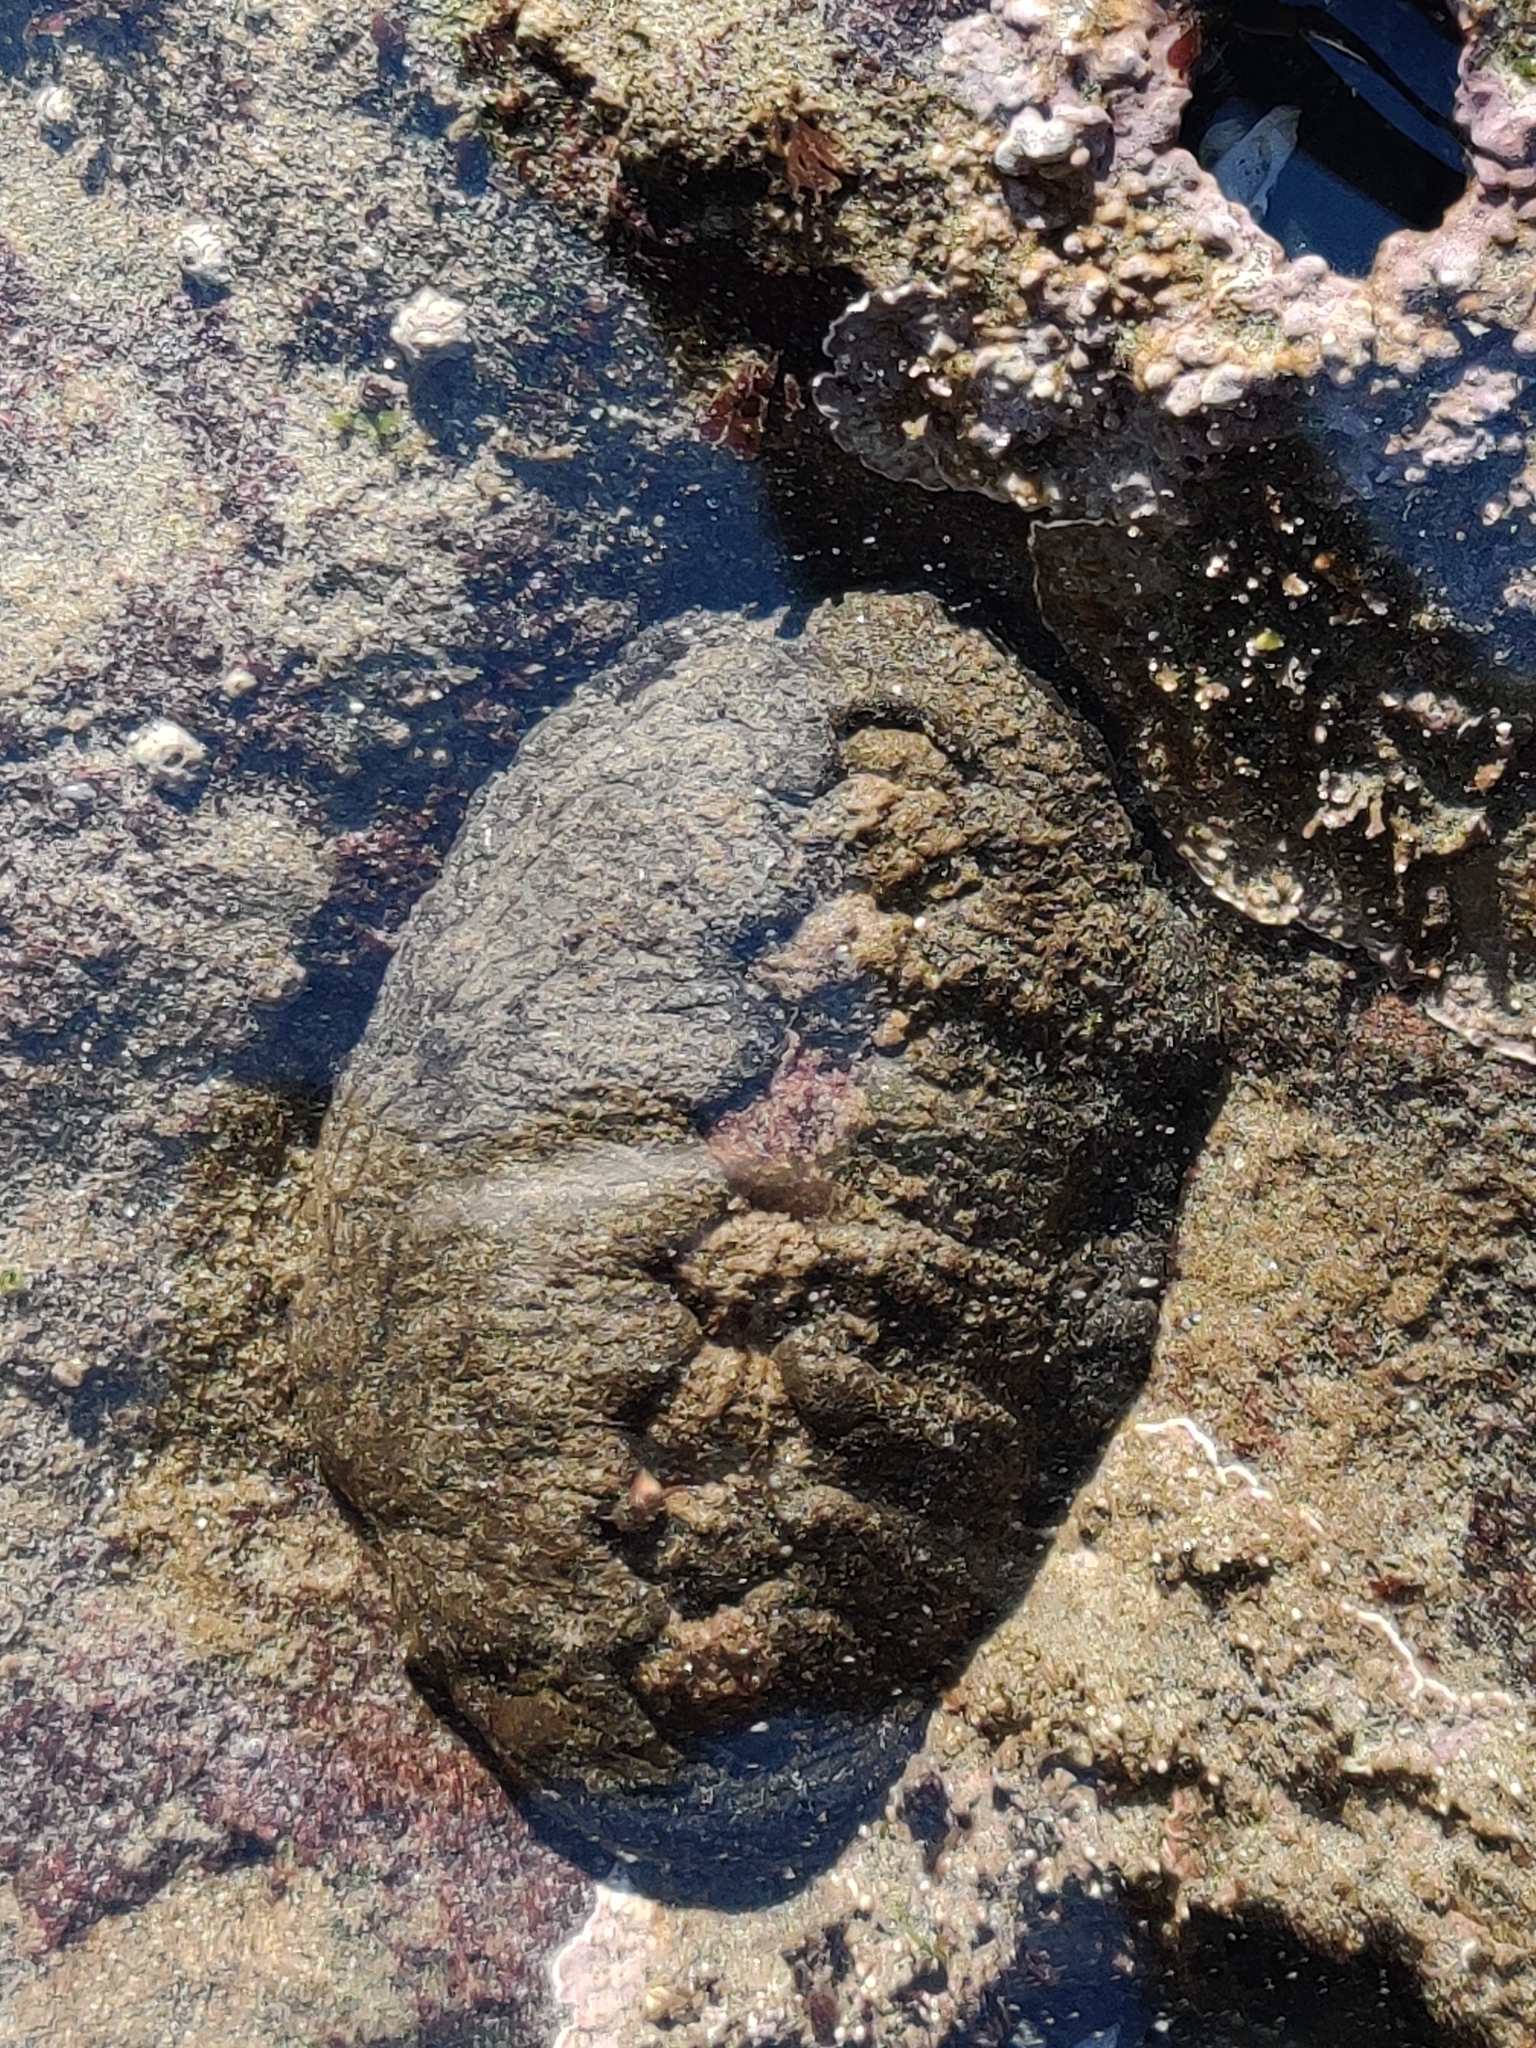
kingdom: Animalia
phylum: Mollusca
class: Polyplacophora
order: Chitonida
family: Mopaliidae
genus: Katharina
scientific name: Katharina tunicata
